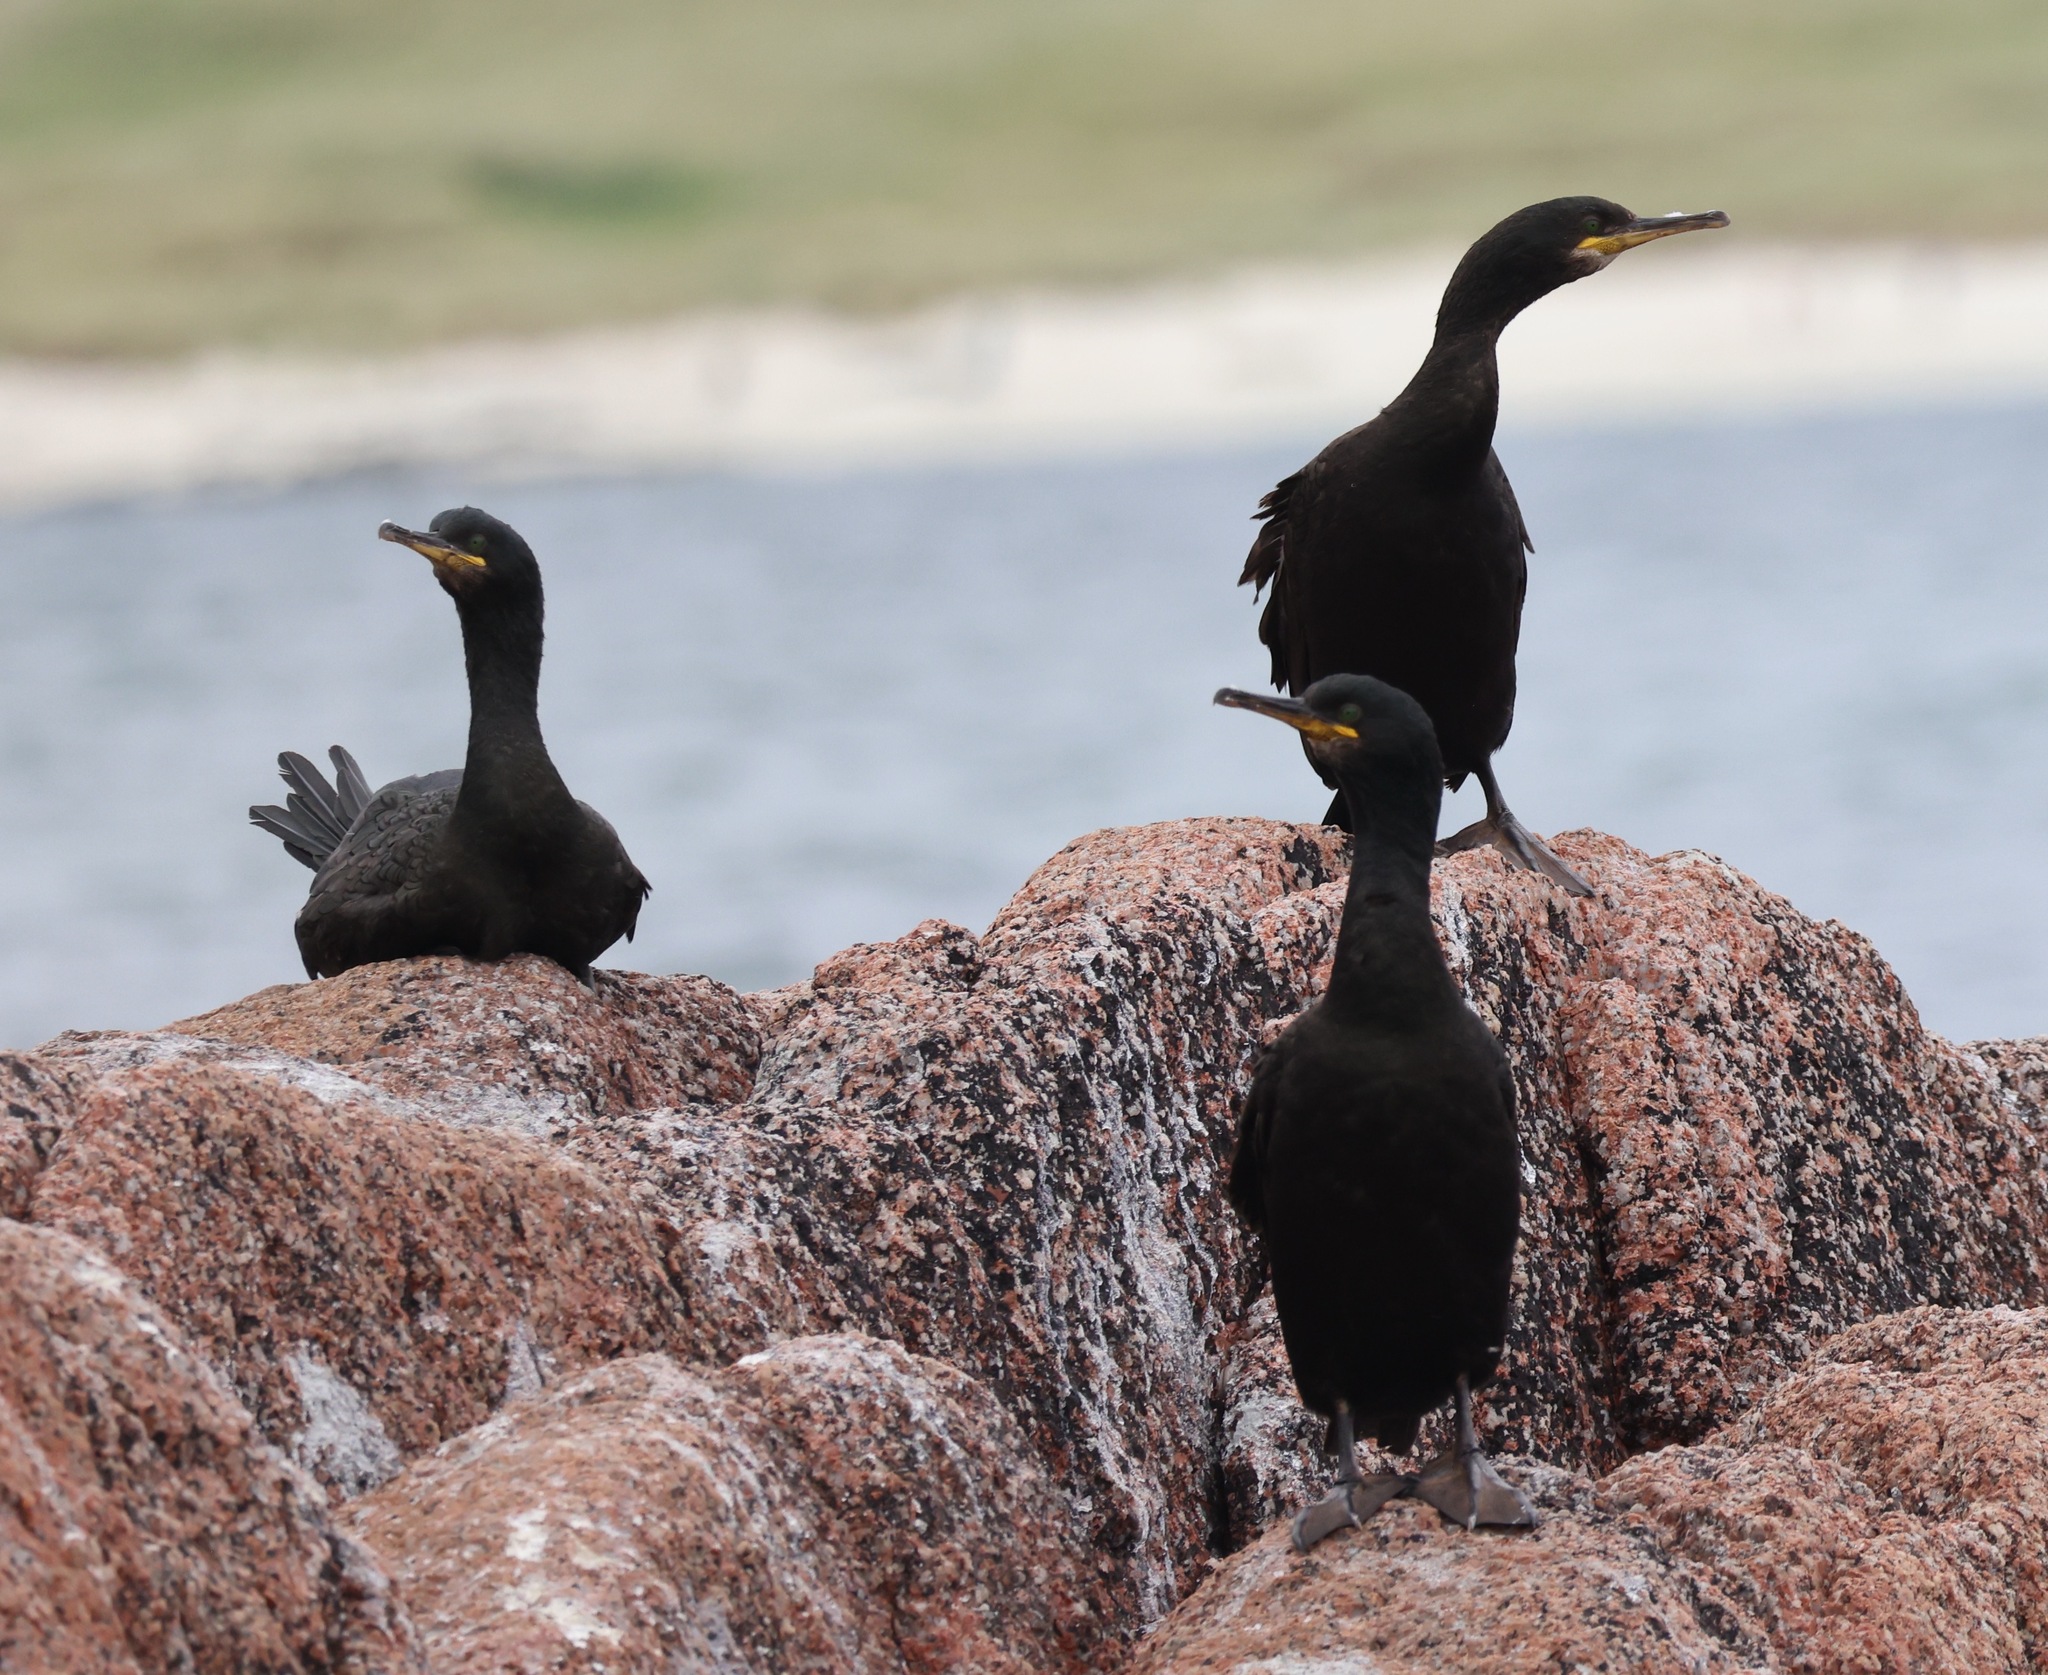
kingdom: Animalia
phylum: Chordata
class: Aves
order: Suliformes
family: Phalacrocoracidae
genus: Phalacrocorax
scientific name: Phalacrocorax aristotelis
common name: European shag
